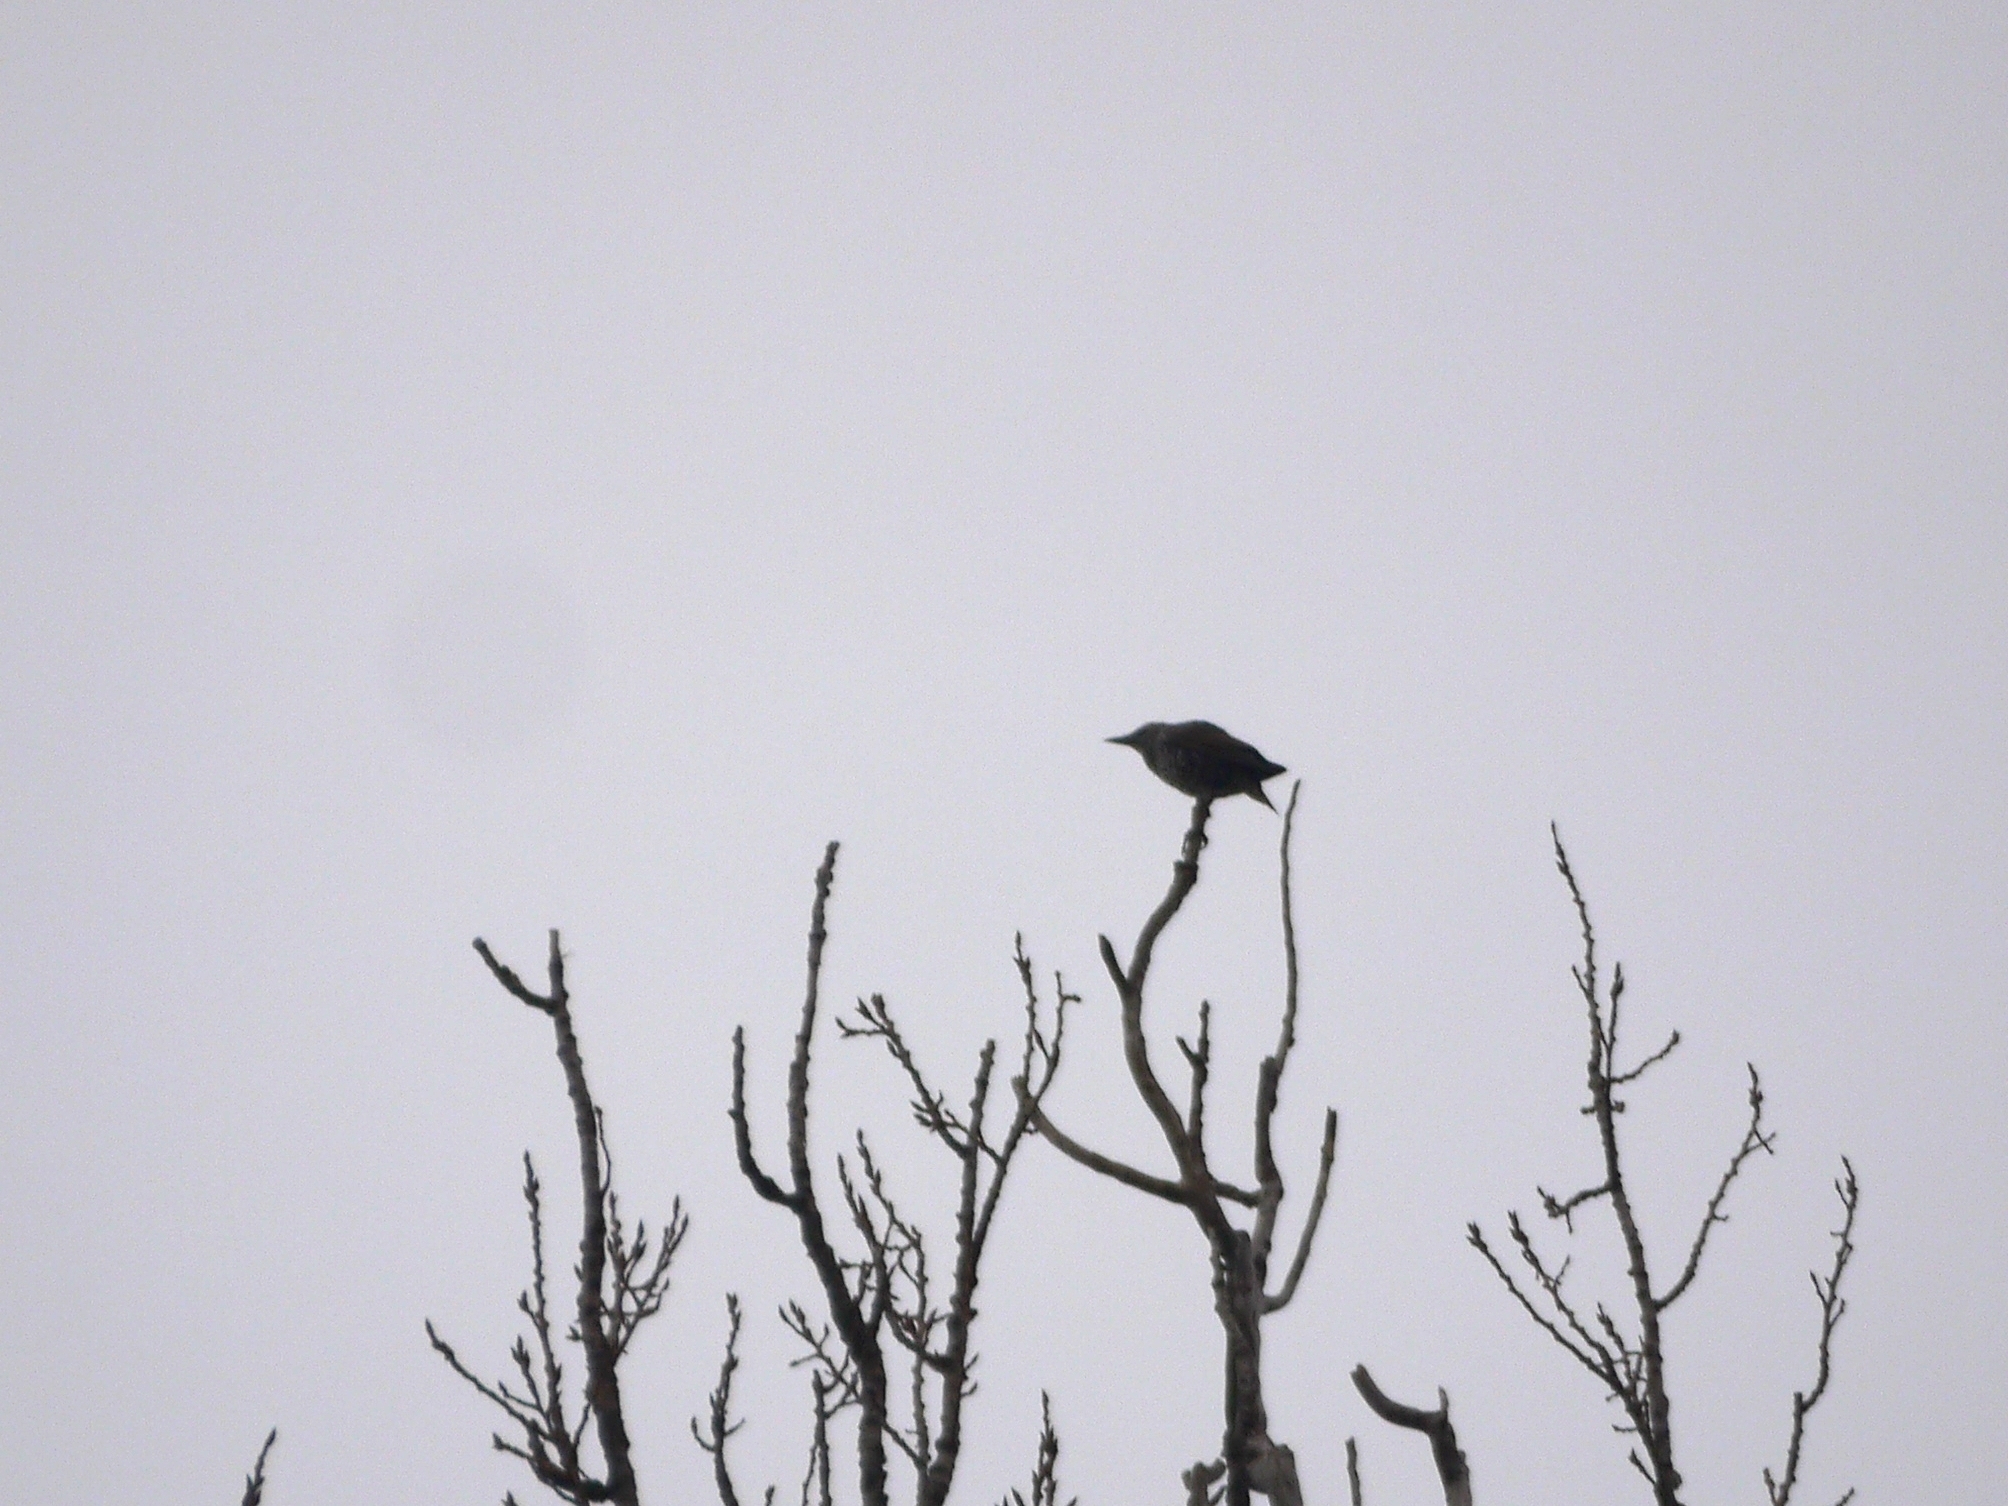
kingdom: Animalia
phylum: Chordata
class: Aves
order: Passeriformes
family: Sturnidae
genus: Sturnus
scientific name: Sturnus vulgaris
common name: Common starling
